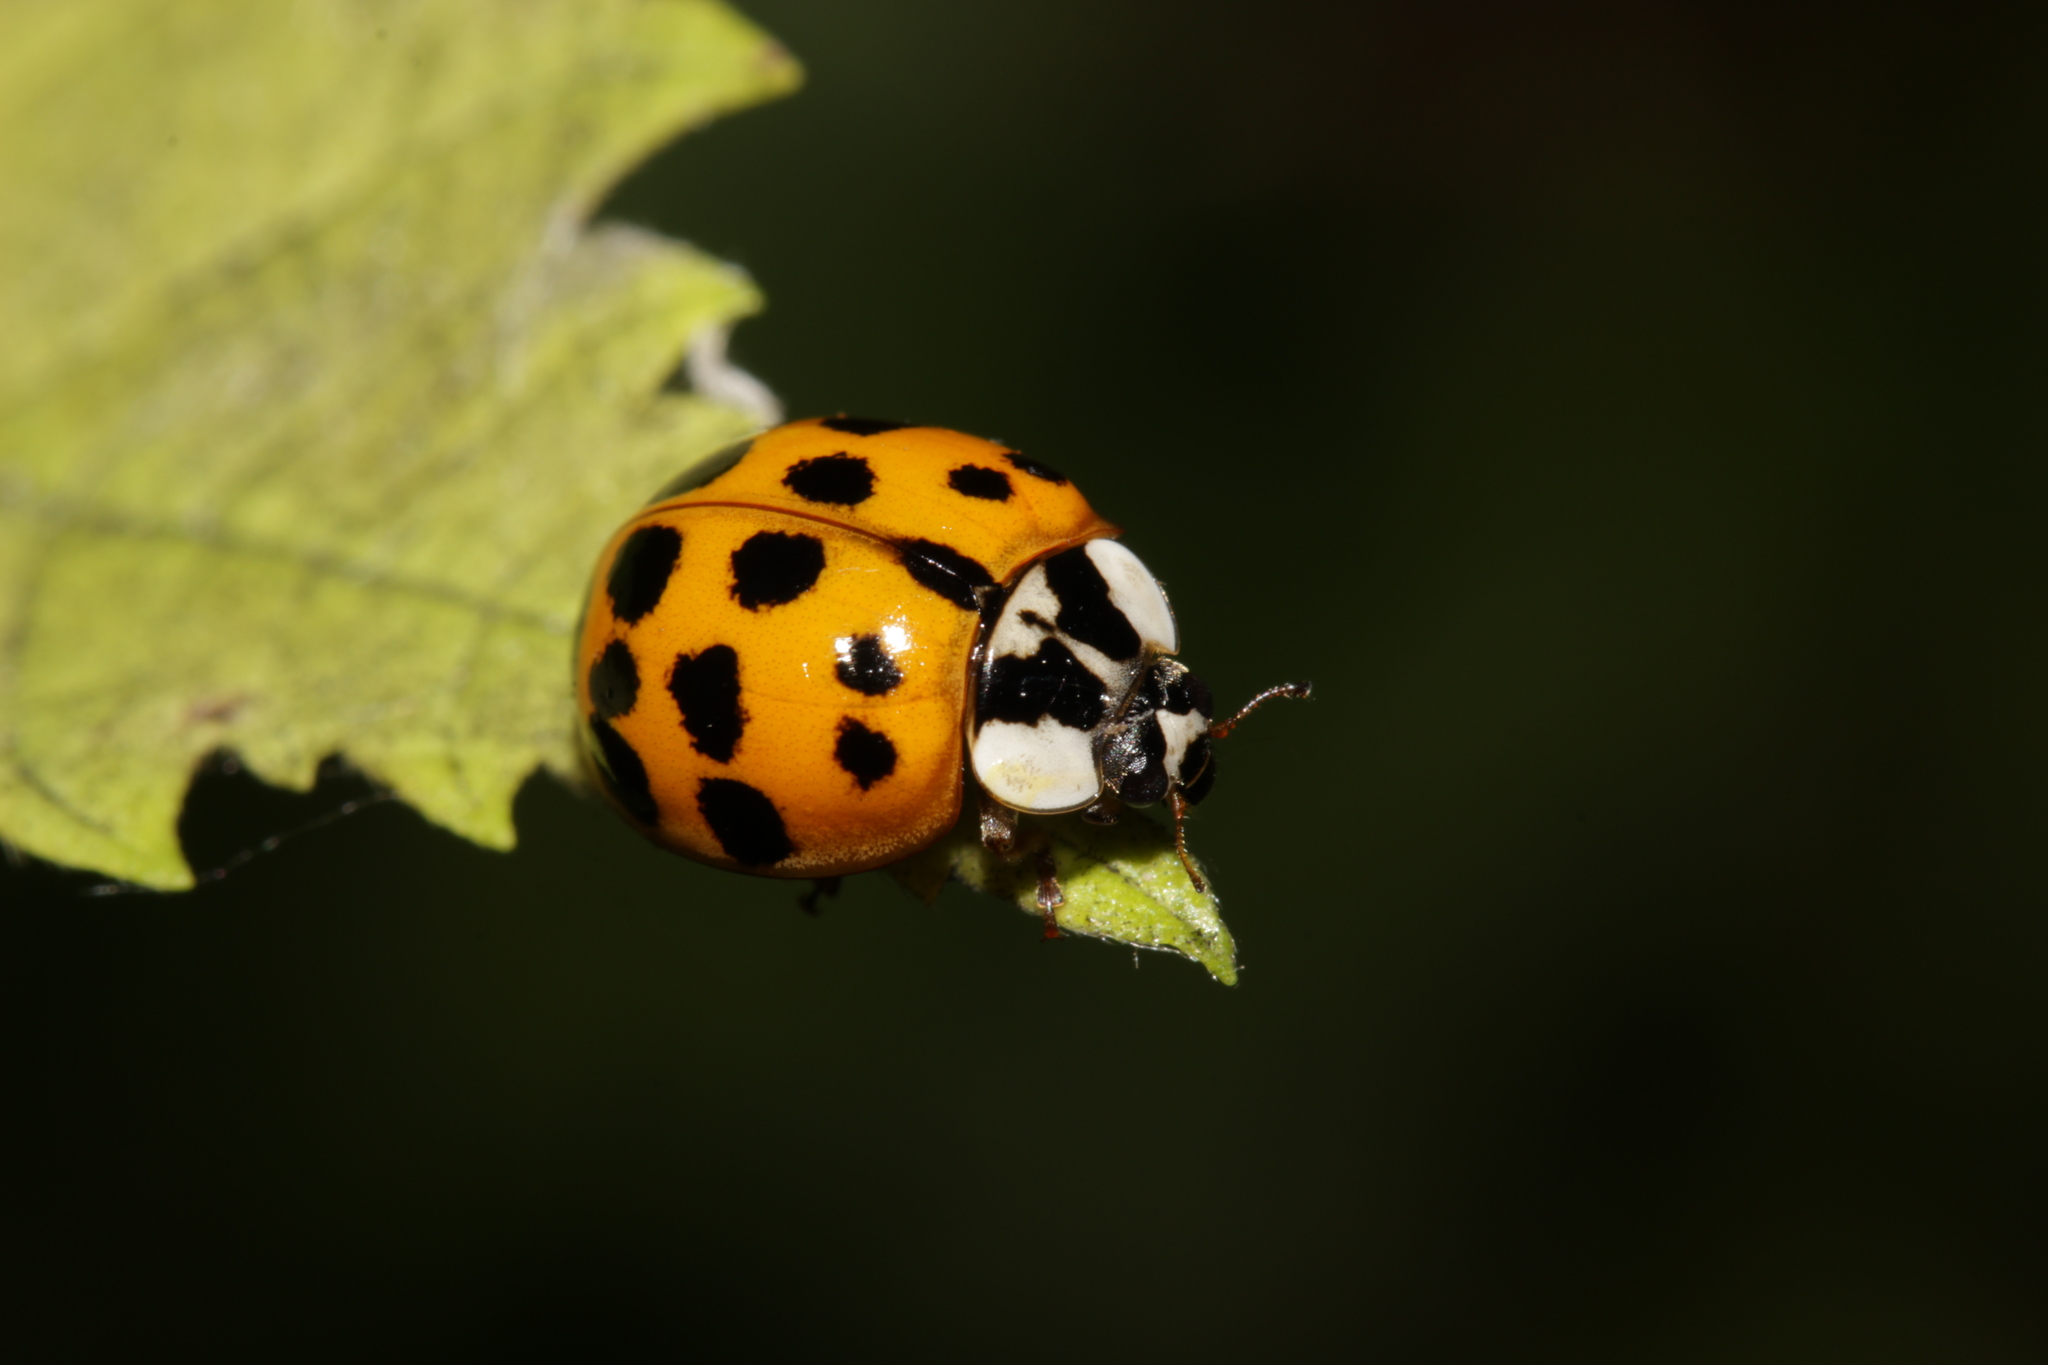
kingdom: Animalia
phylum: Arthropoda
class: Insecta
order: Coleoptera
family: Coccinellidae
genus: Harmonia
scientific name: Harmonia axyridis
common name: Harlequin ladybird
